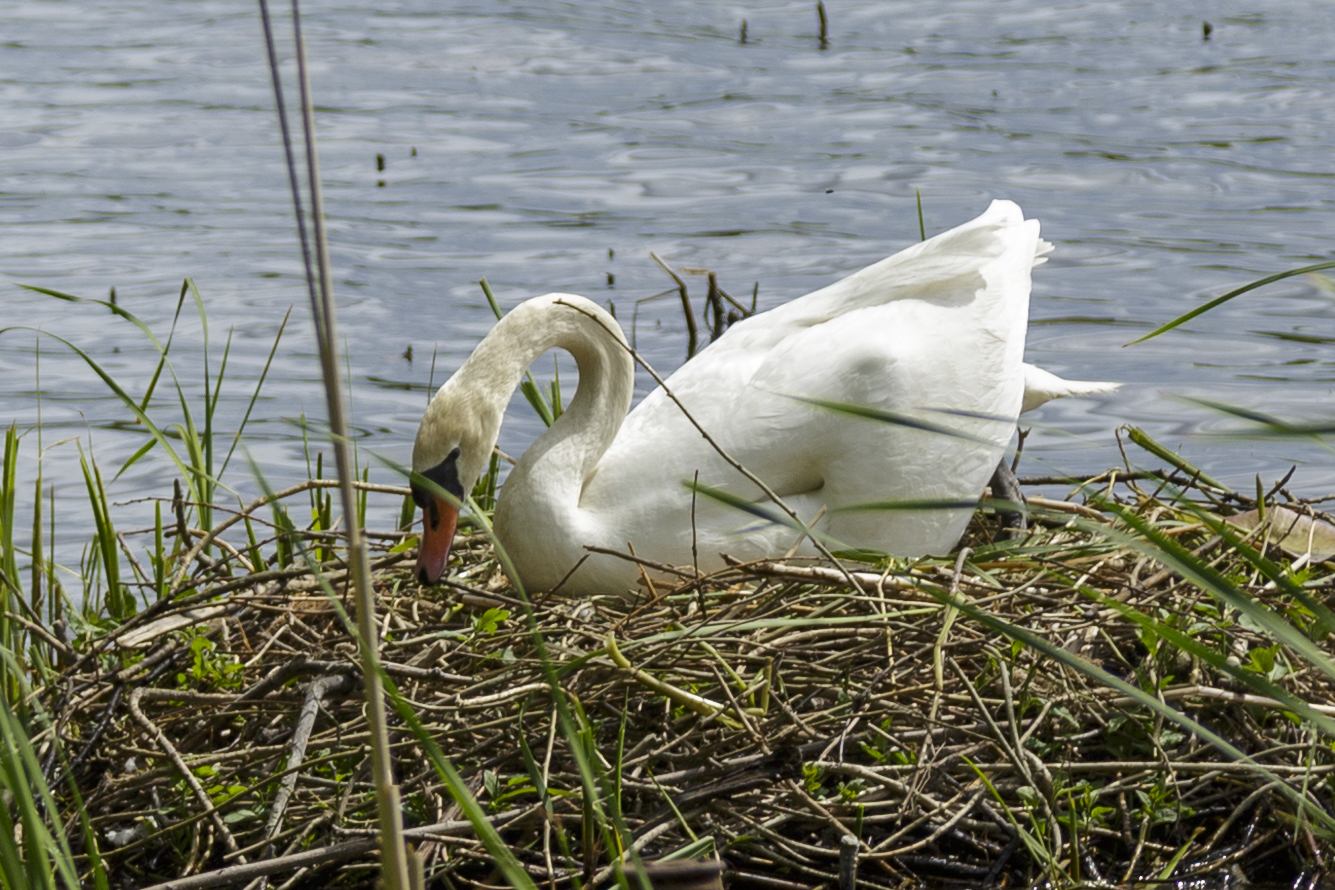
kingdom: Animalia
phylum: Chordata
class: Aves
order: Anseriformes
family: Anatidae
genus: Cygnus
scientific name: Cygnus olor
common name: Mute swan
